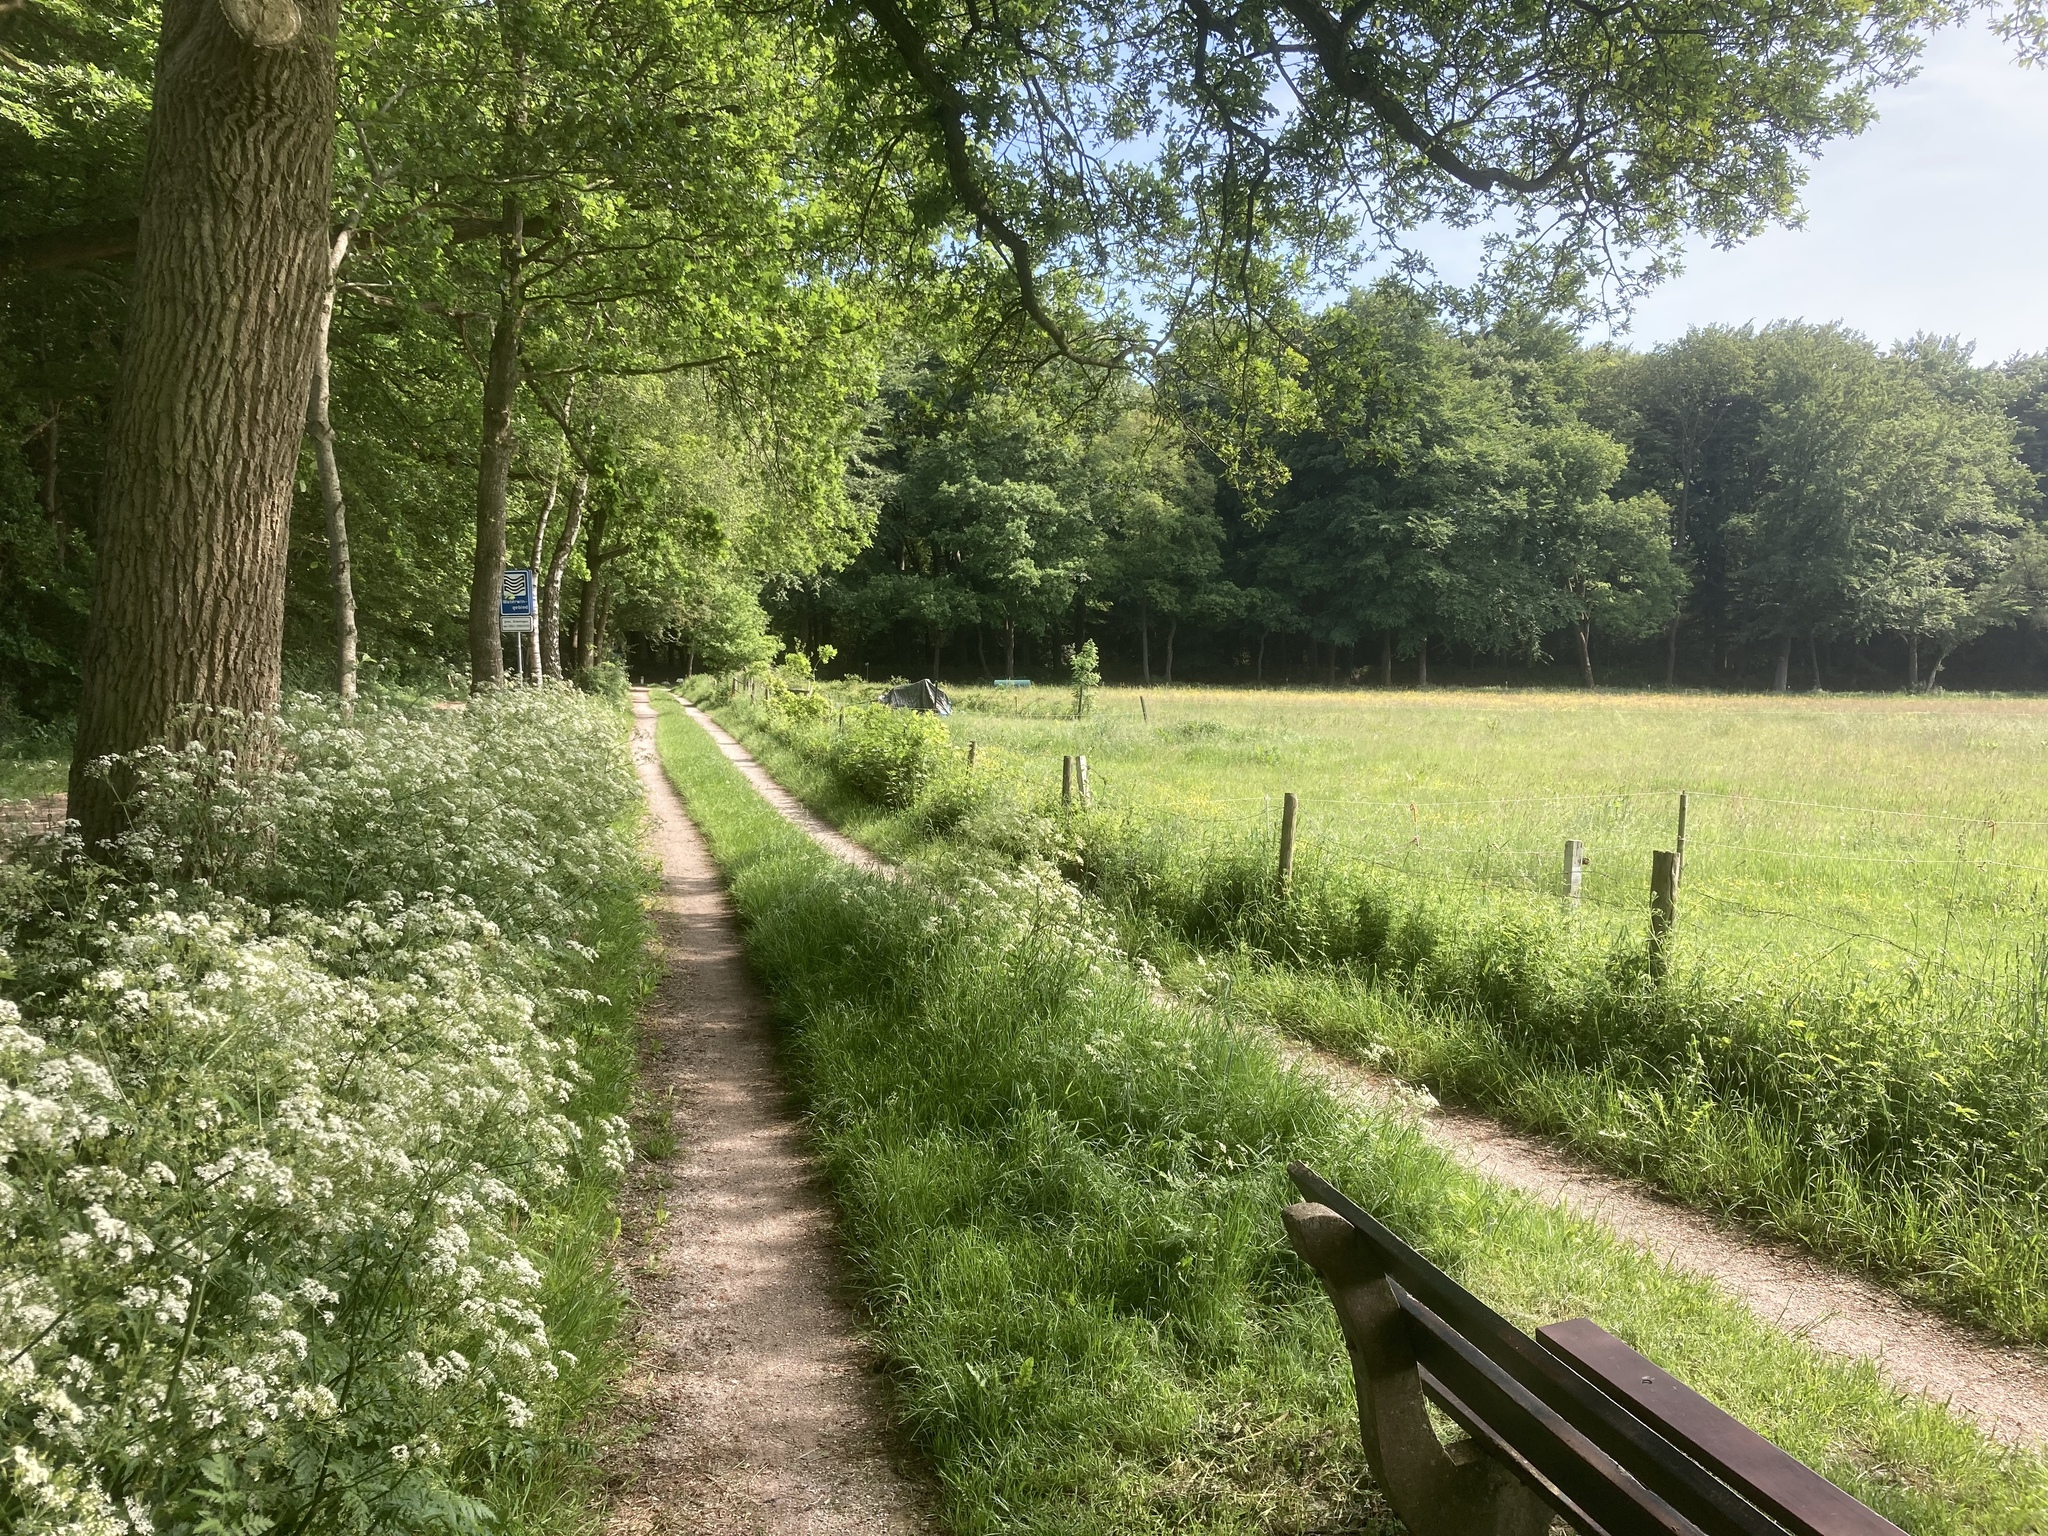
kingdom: Plantae
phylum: Tracheophyta
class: Magnoliopsida
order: Apiales
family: Apiaceae
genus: Anthriscus
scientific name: Anthriscus sylvestris
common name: Cow parsley
